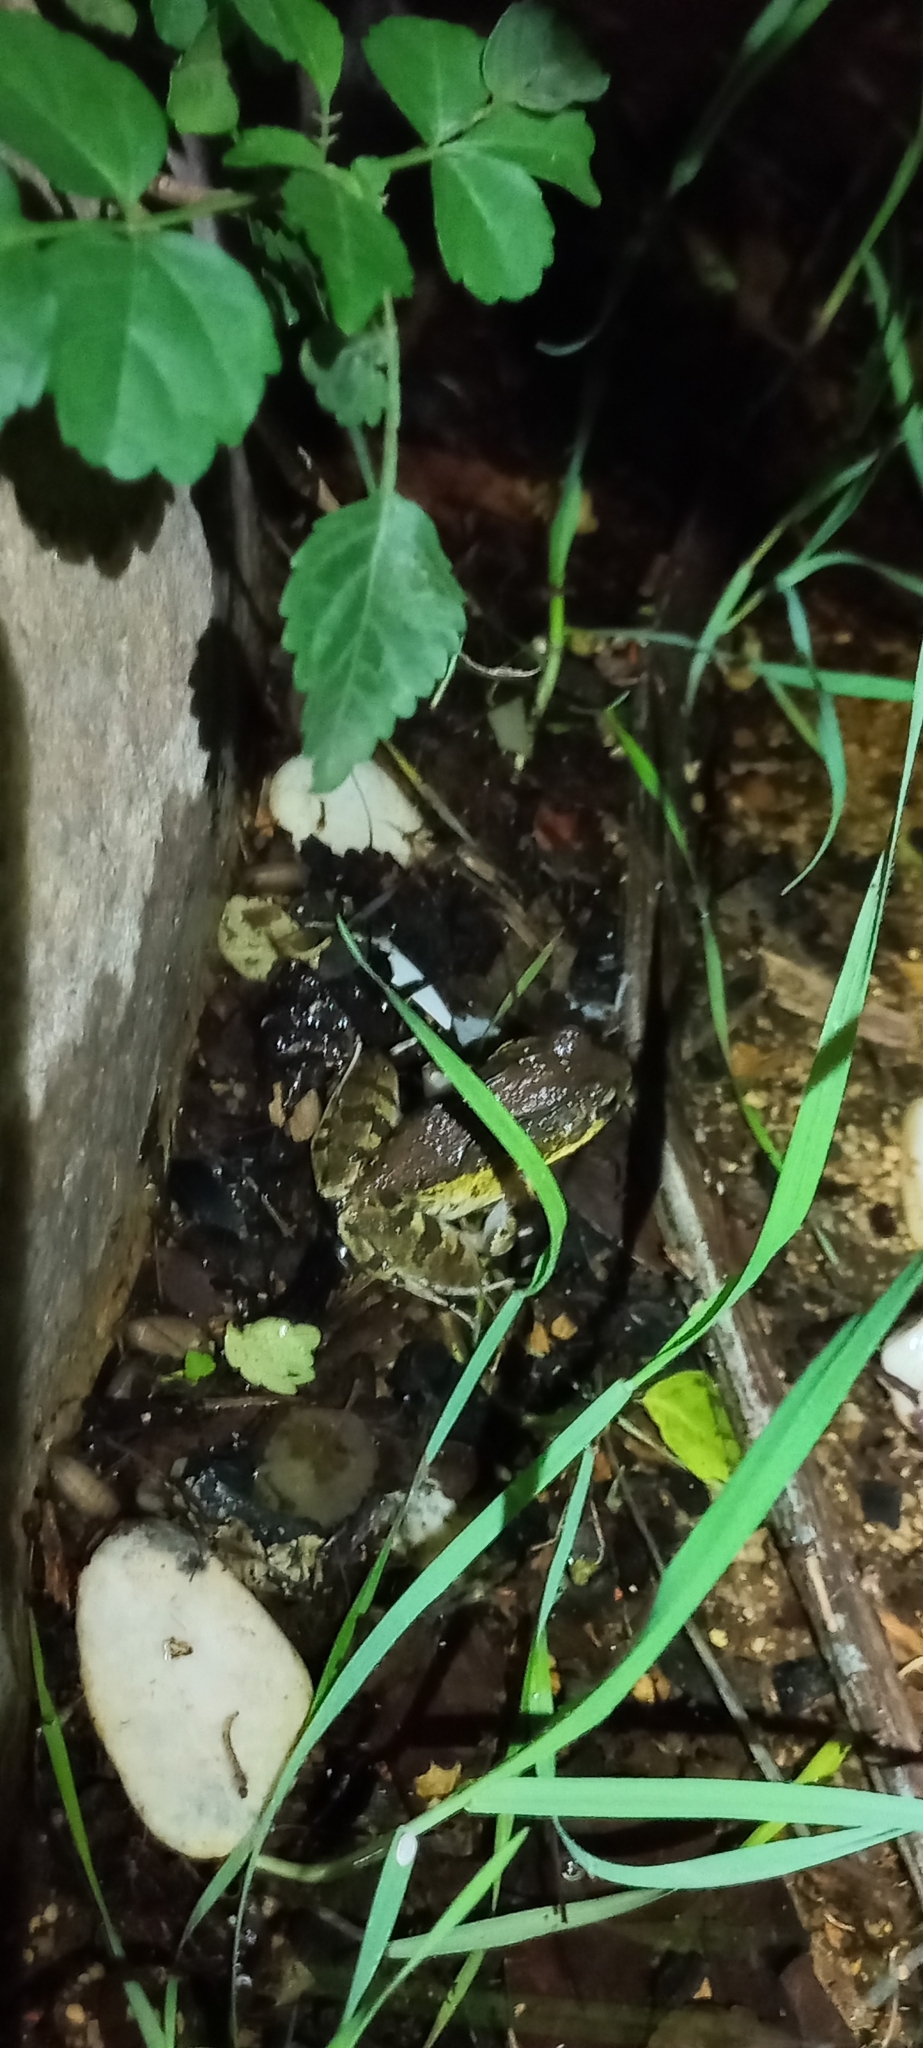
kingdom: Animalia
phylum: Chordata
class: Amphibia
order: Anura
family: Pyxicephalidae
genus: Strongylopus
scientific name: Strongylopus grayii
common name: Gray's stream frog
